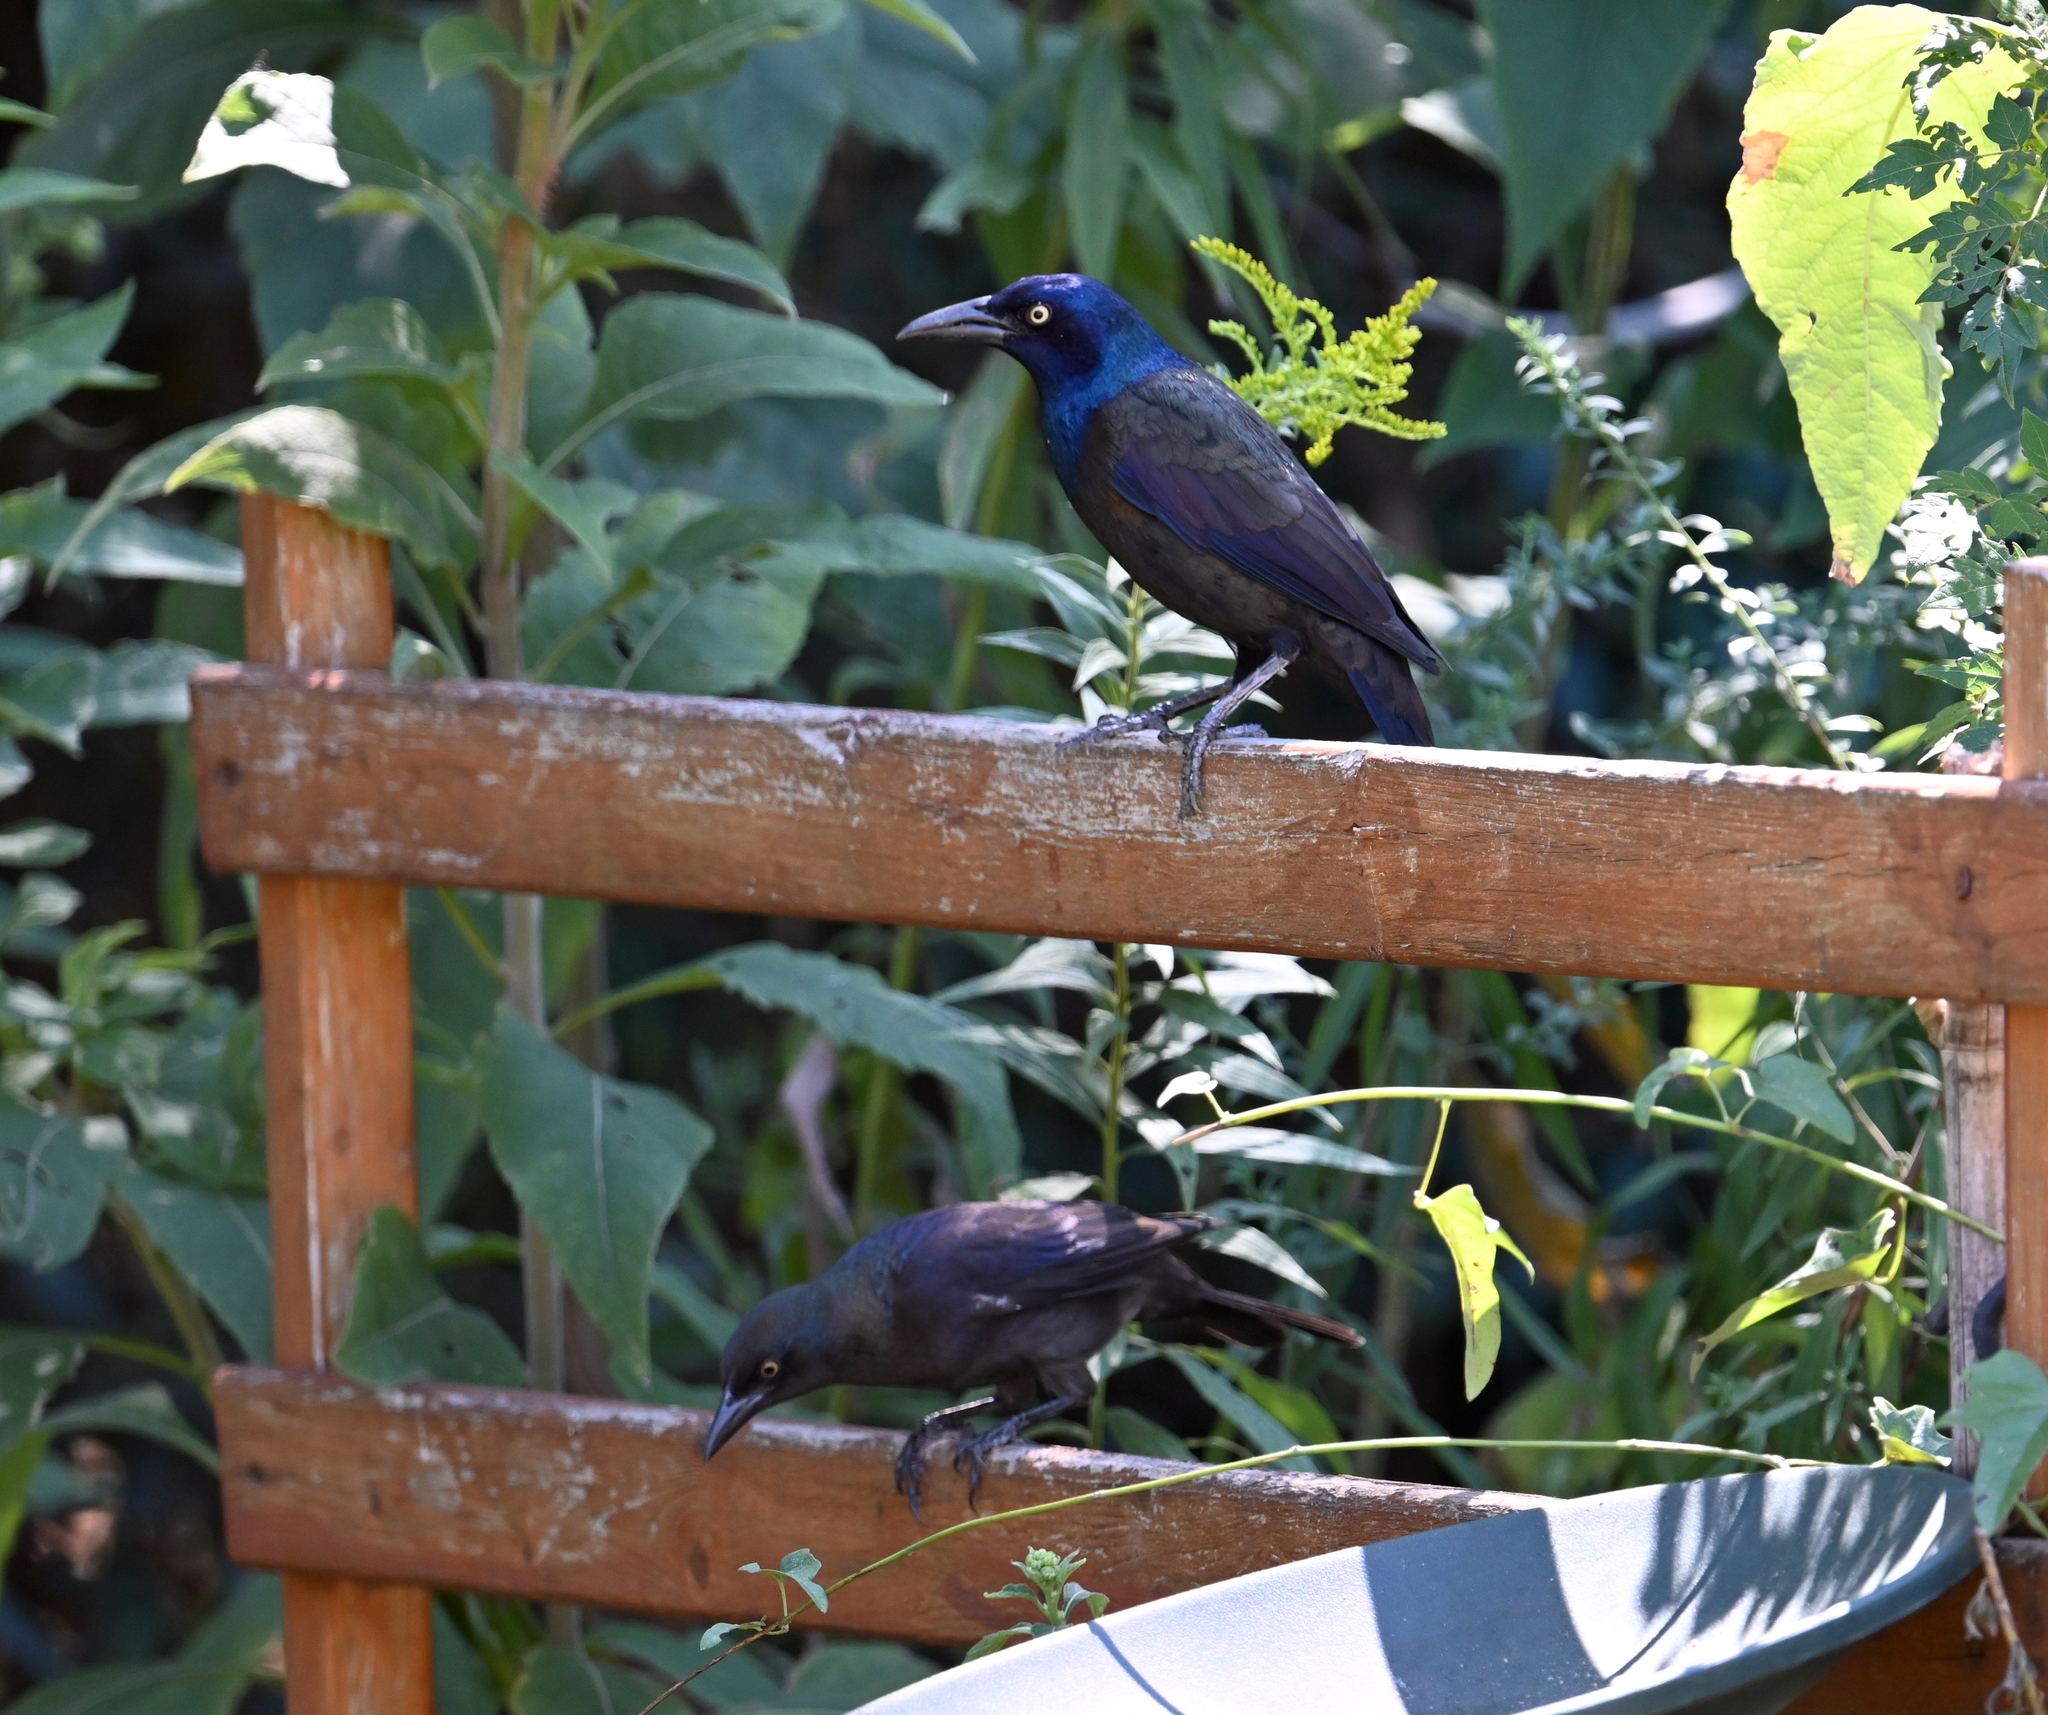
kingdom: Animalia
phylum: Chordata
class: Aves
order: Passeriformes
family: Icteridae
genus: Quiscalus
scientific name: Quiscalus quiscula
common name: Common grackle
